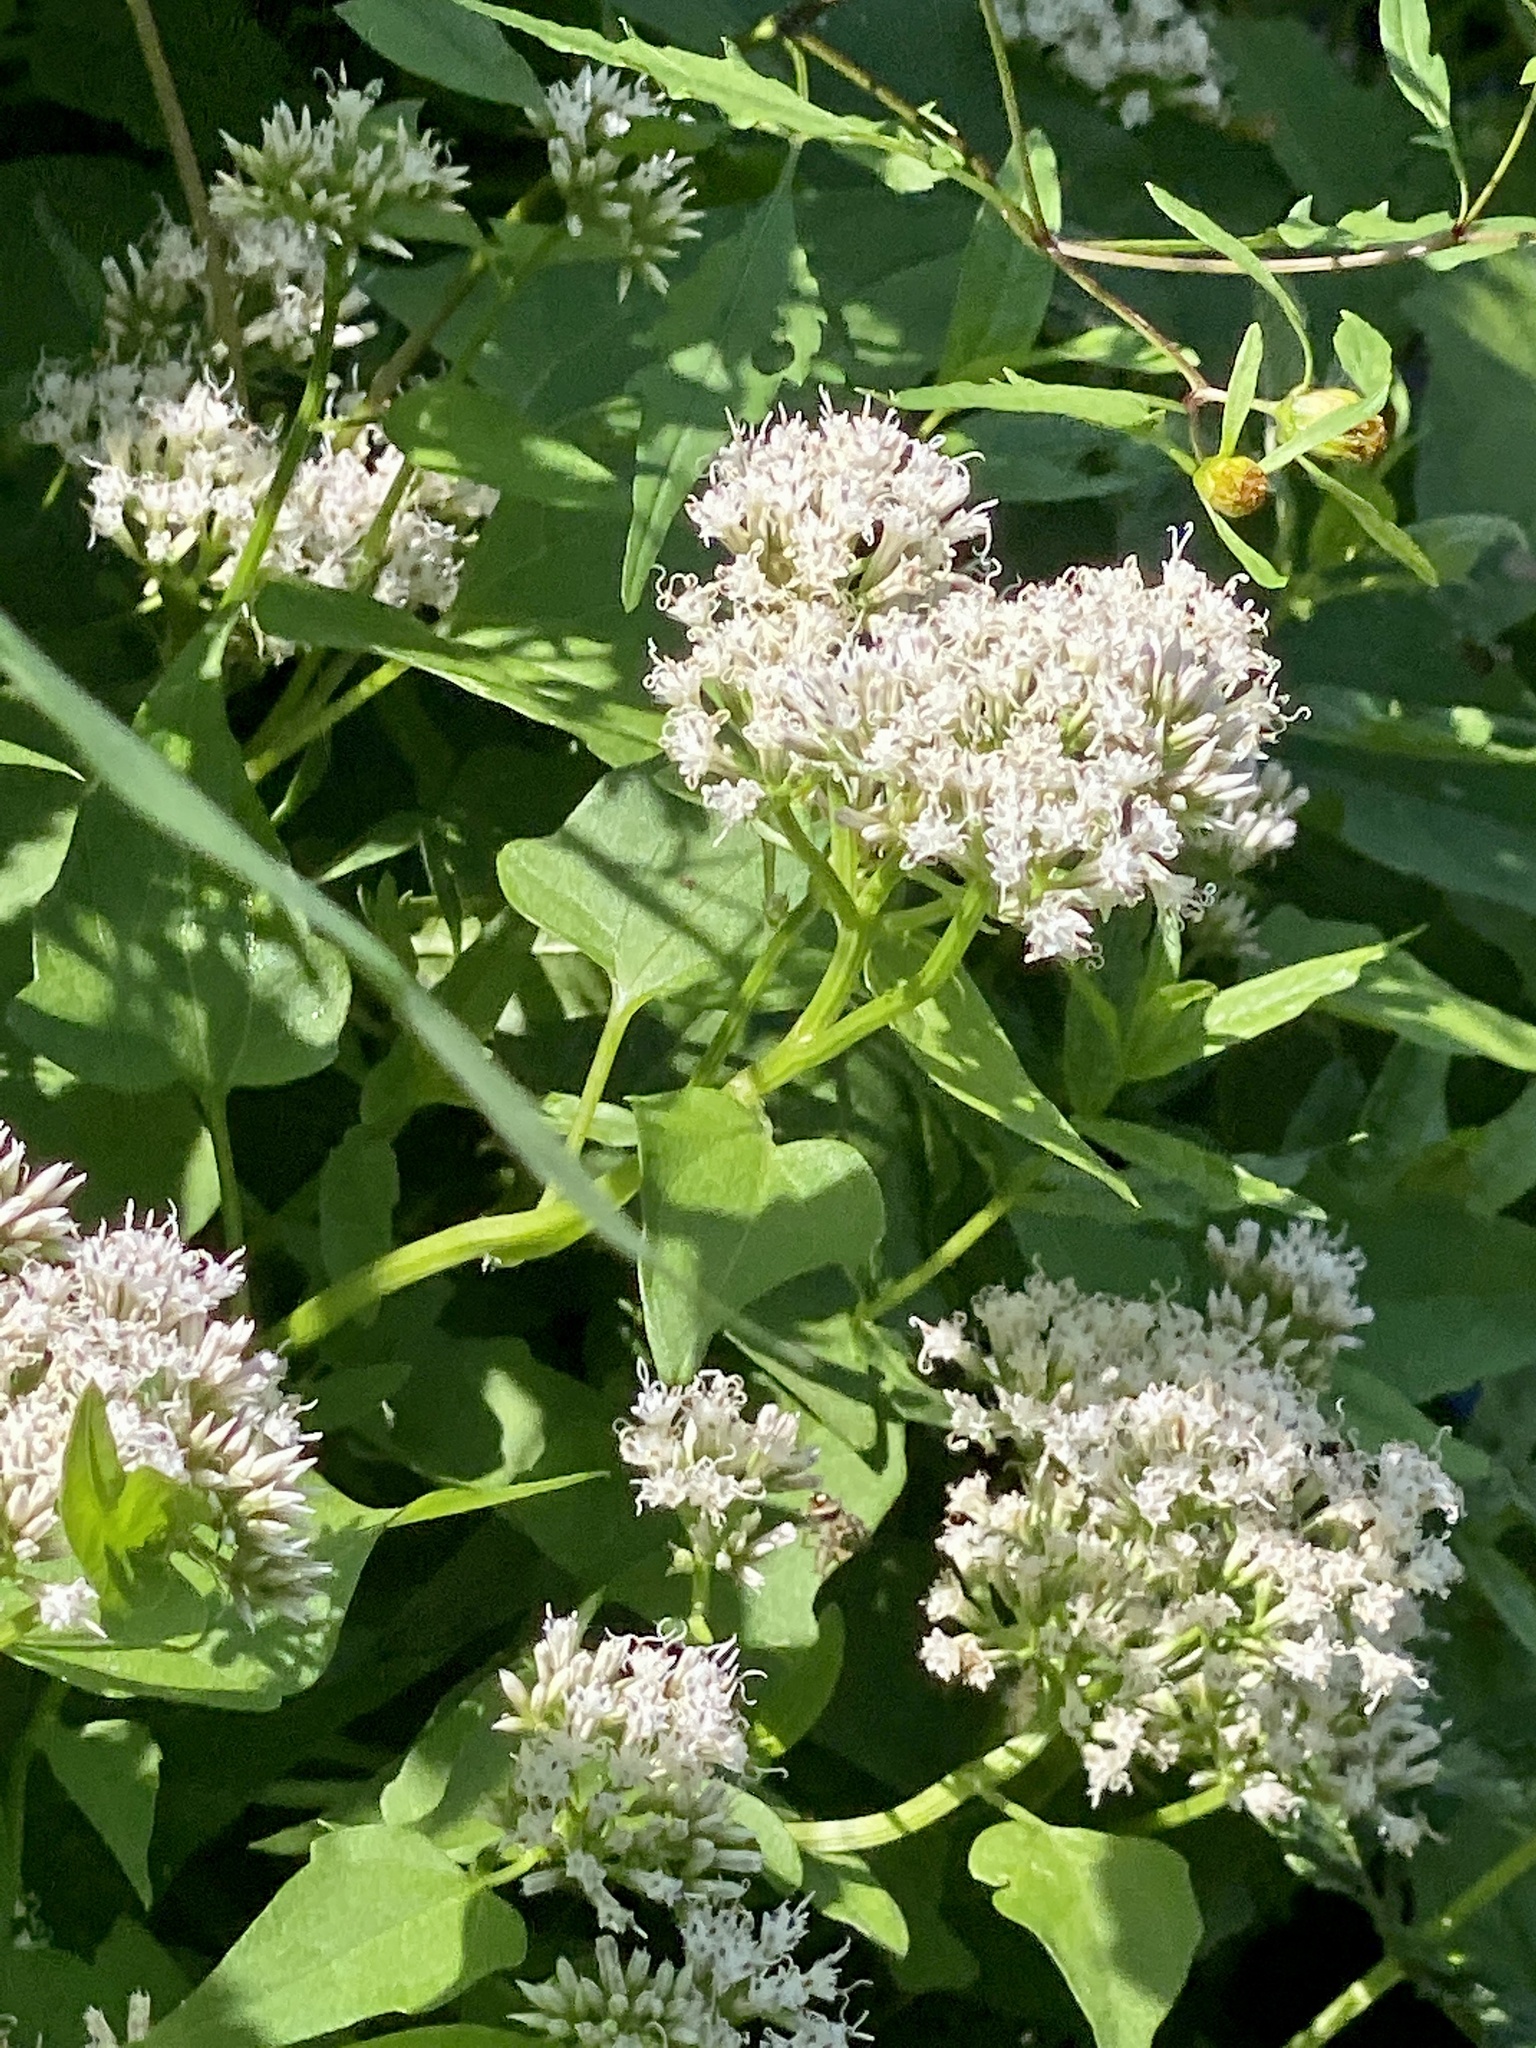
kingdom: Plantae
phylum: Tracheophyta
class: Magnoliopsida
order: Asterales
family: Asteraceae
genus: Mikania
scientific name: Mikania scandens
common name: Climbing hempvine
